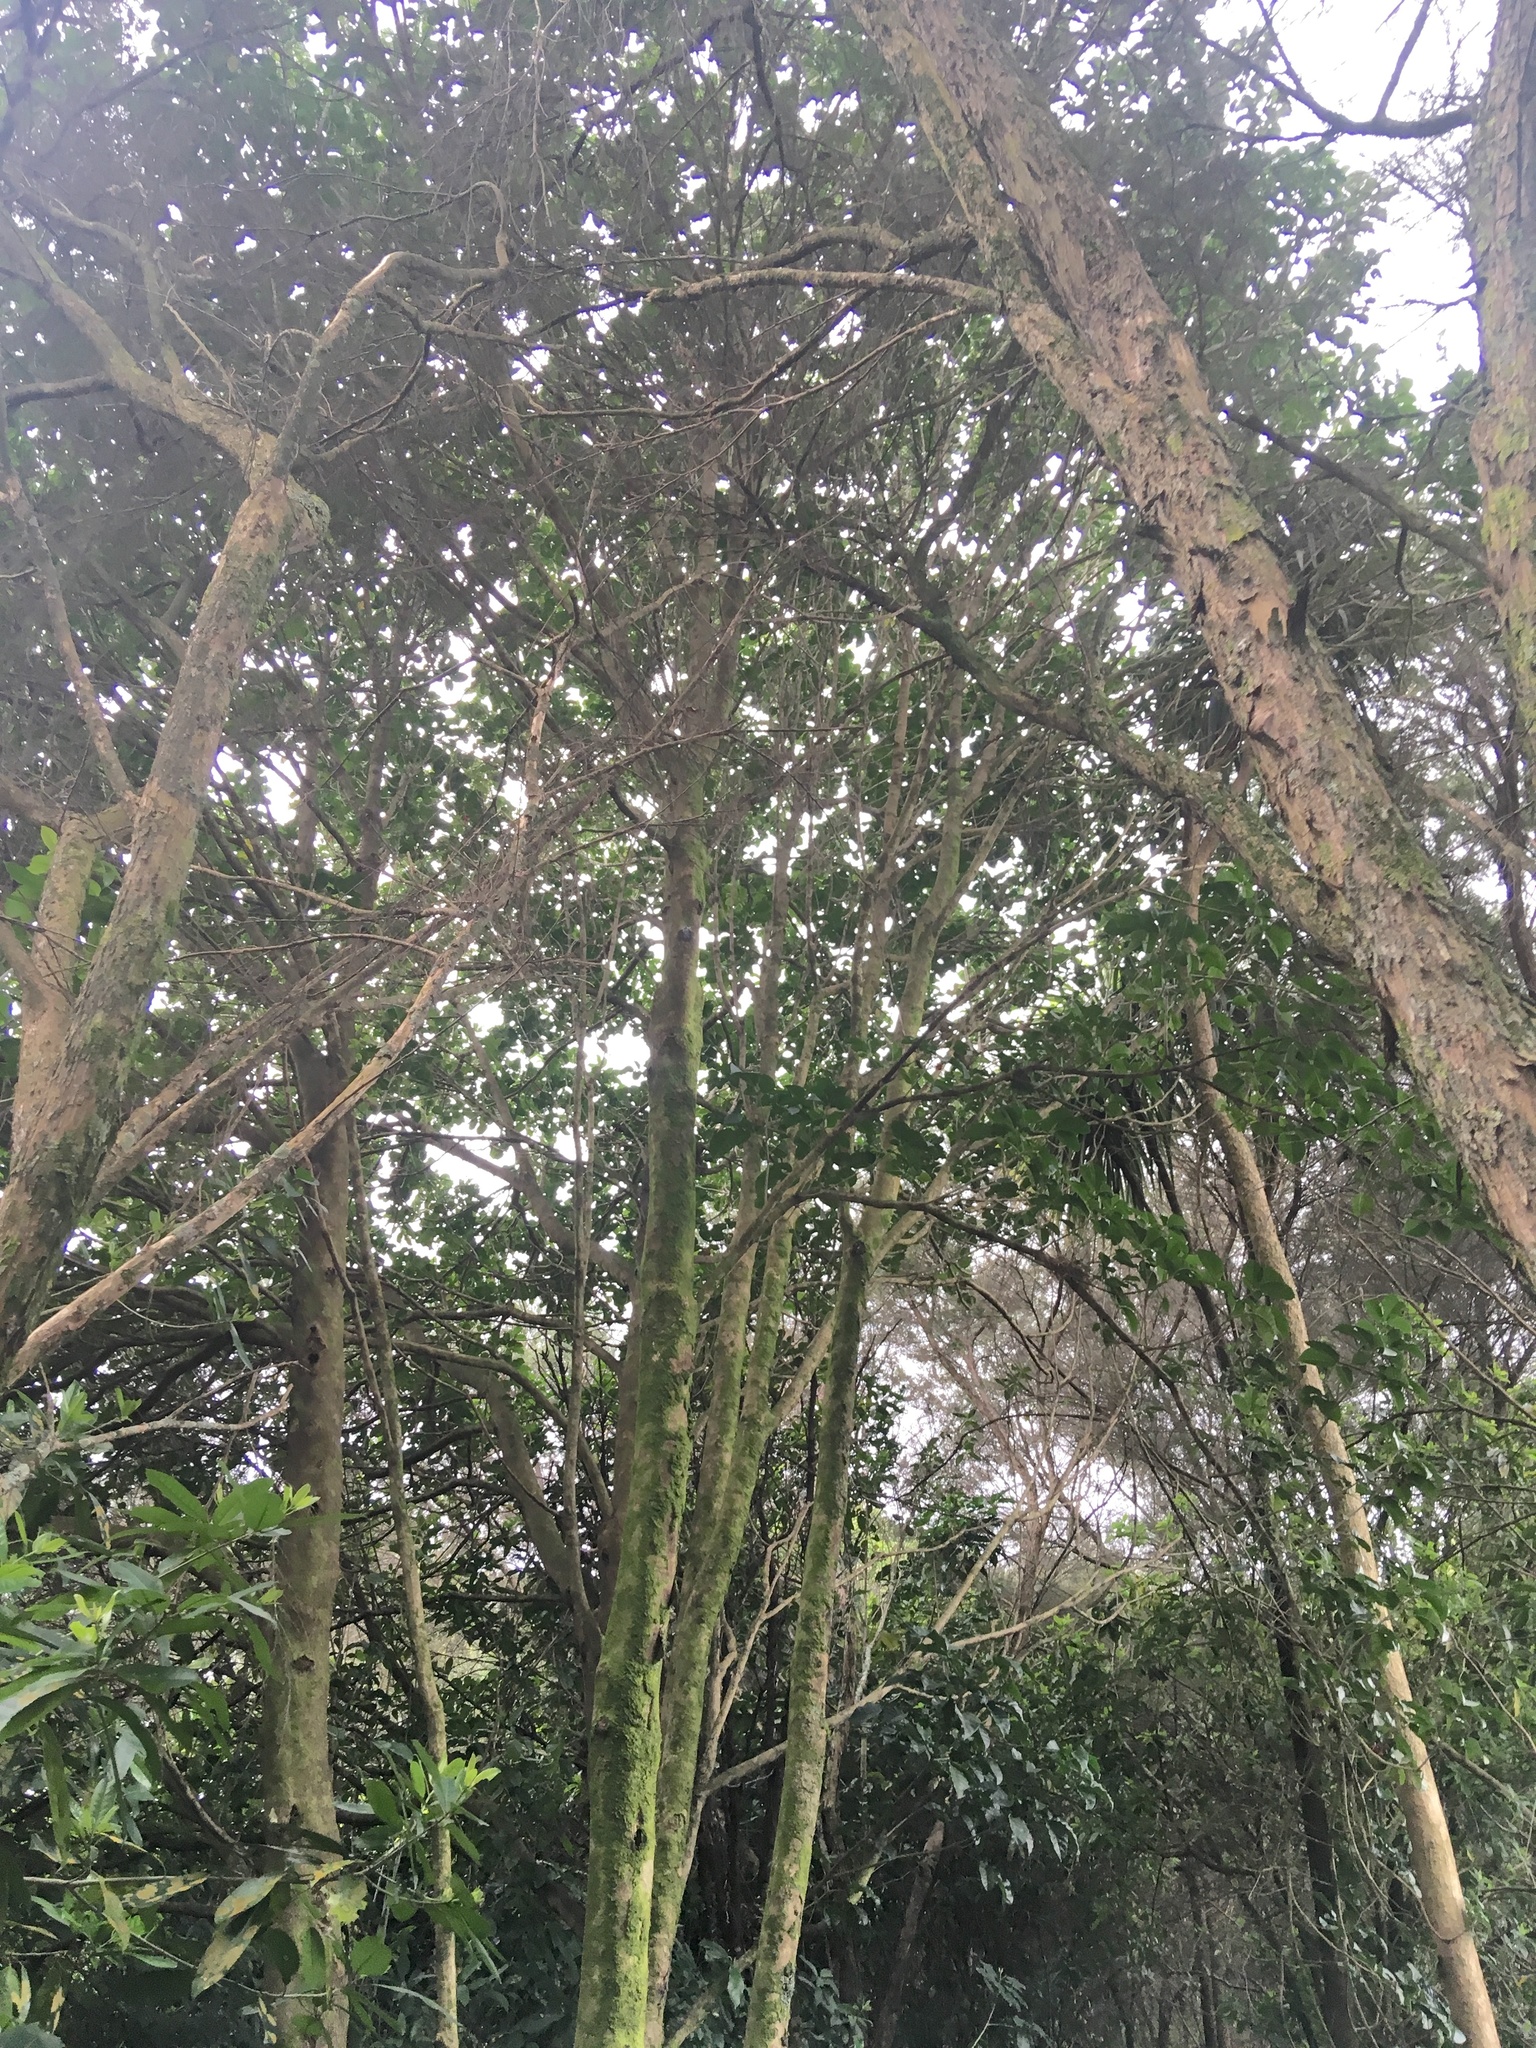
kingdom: Plantae
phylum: Tracheophyta
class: Magnoliopsida
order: Lamiales
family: Lamiaceae
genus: Vitex
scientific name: Vitex lucens
